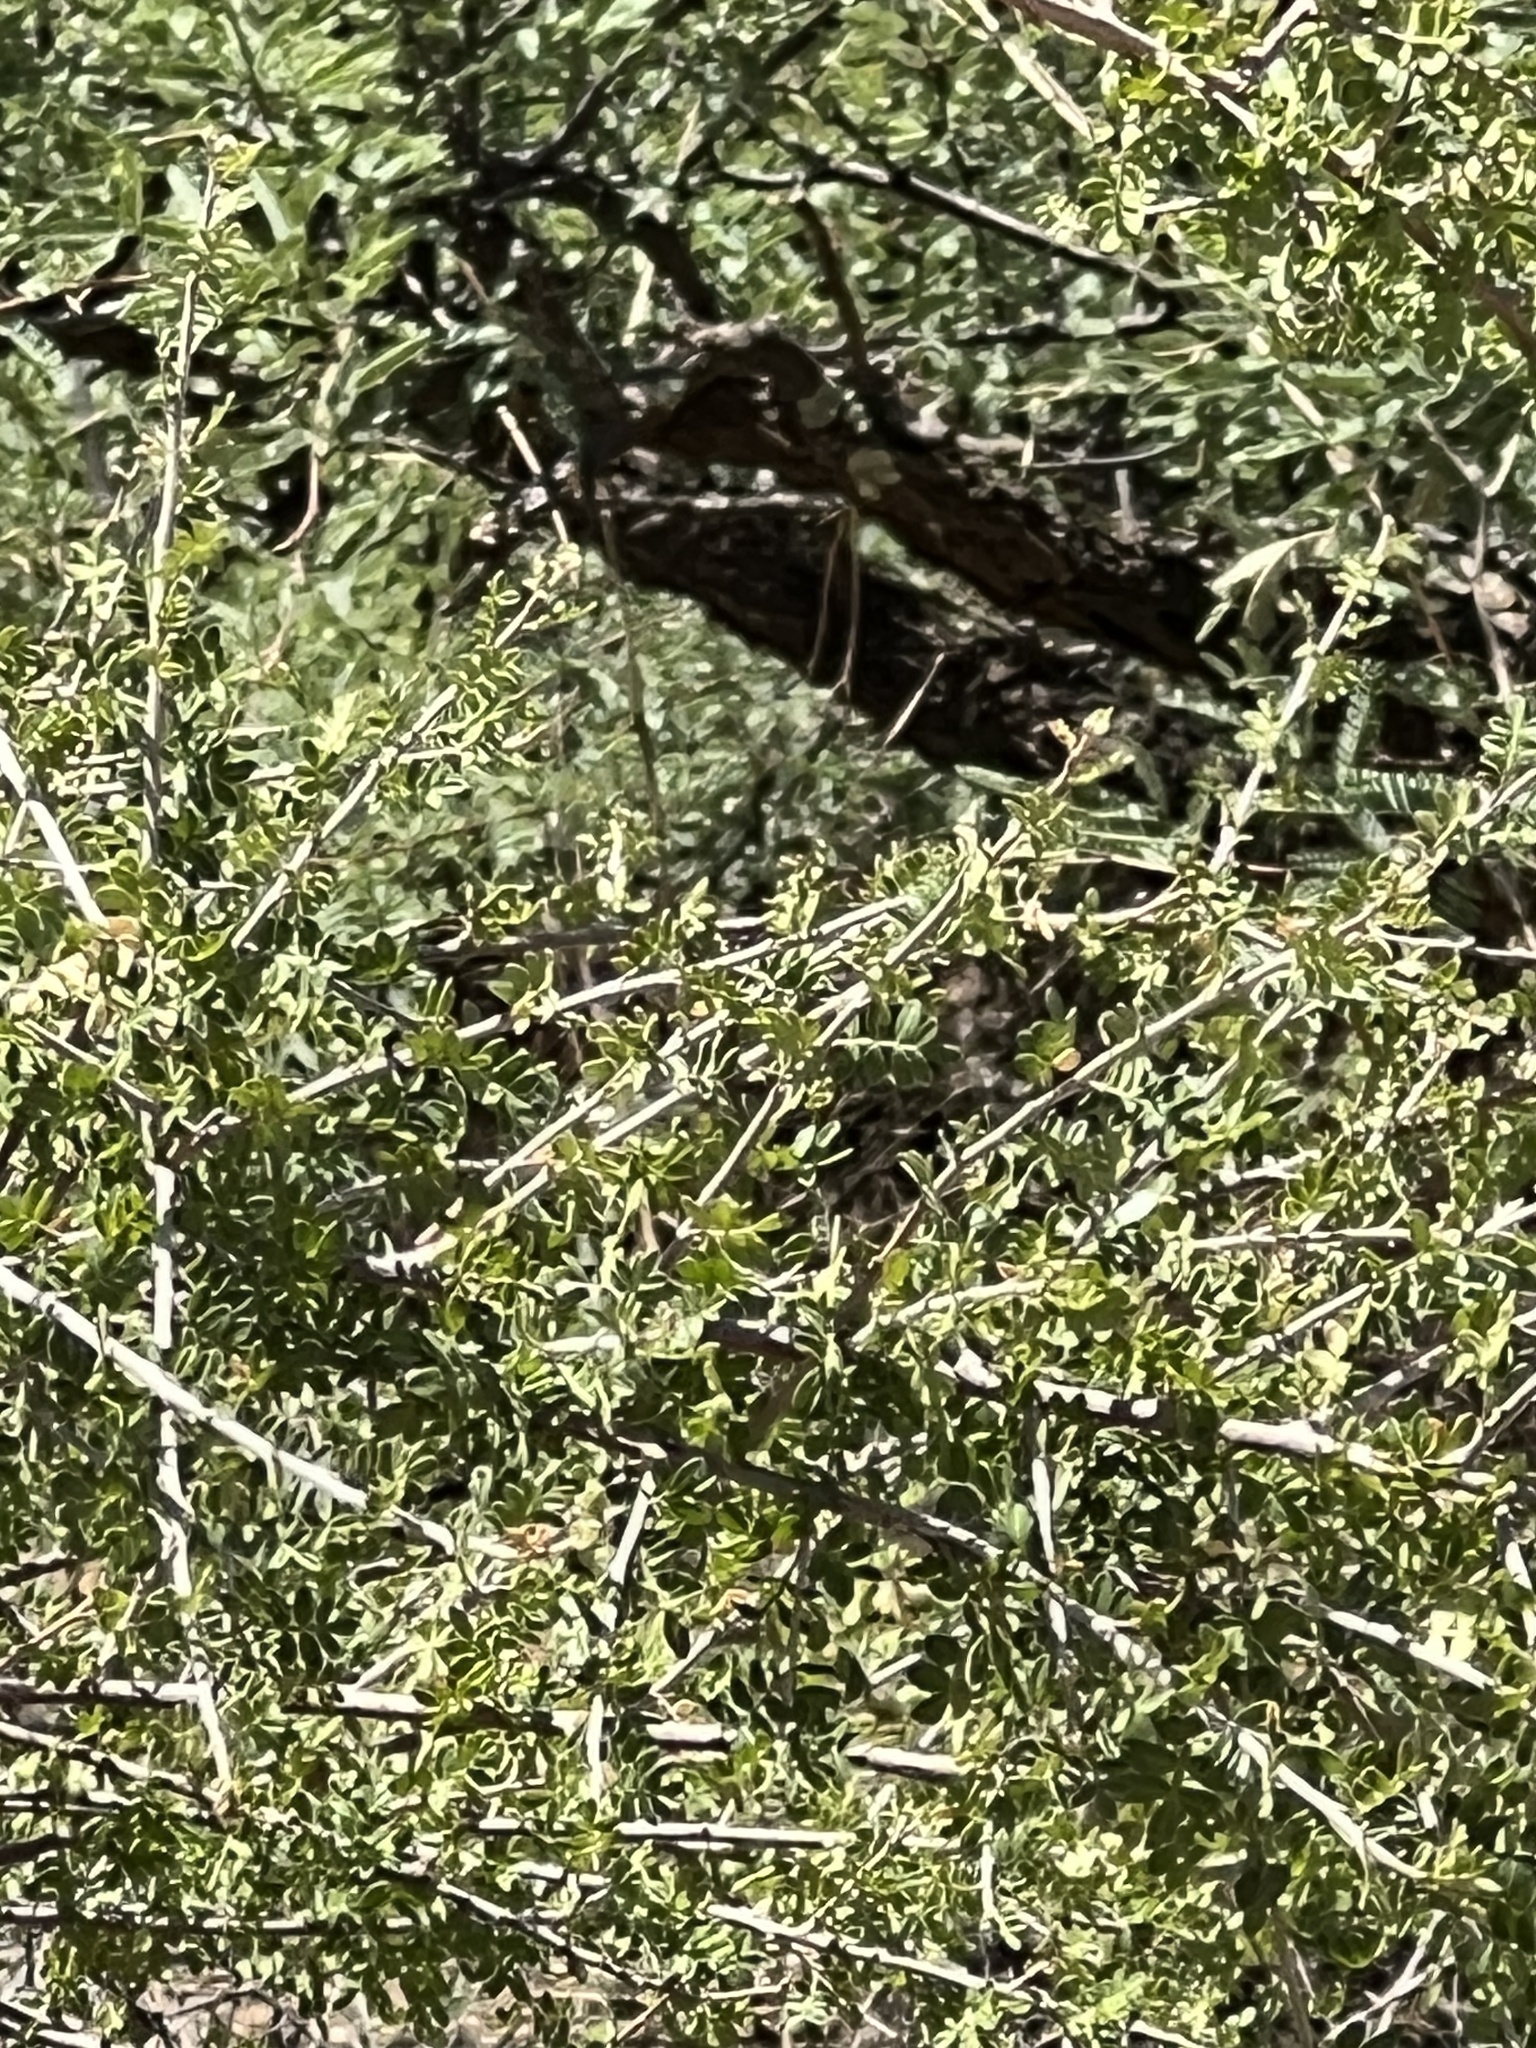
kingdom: Plantae
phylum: Tracheophyta
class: Magnoliopsida
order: Sapindales
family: Anacardiaceae
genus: Rhus
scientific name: Rhus microphylla
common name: Desert sumac
